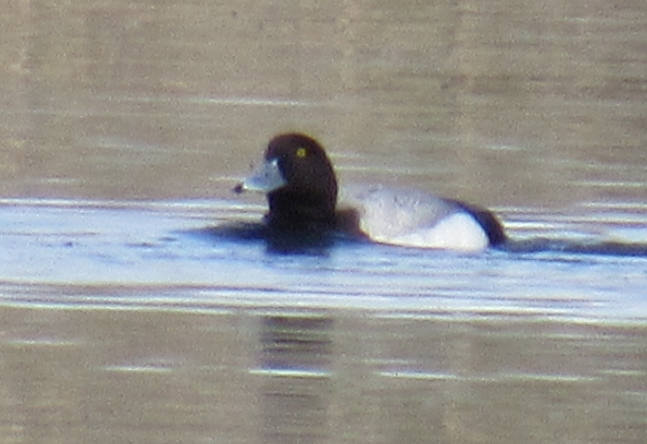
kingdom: Animalia
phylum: Chordata
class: Aves
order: Anseriformes
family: Anatidae
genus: Aythya
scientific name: Aythya marila
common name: Greater scaup
